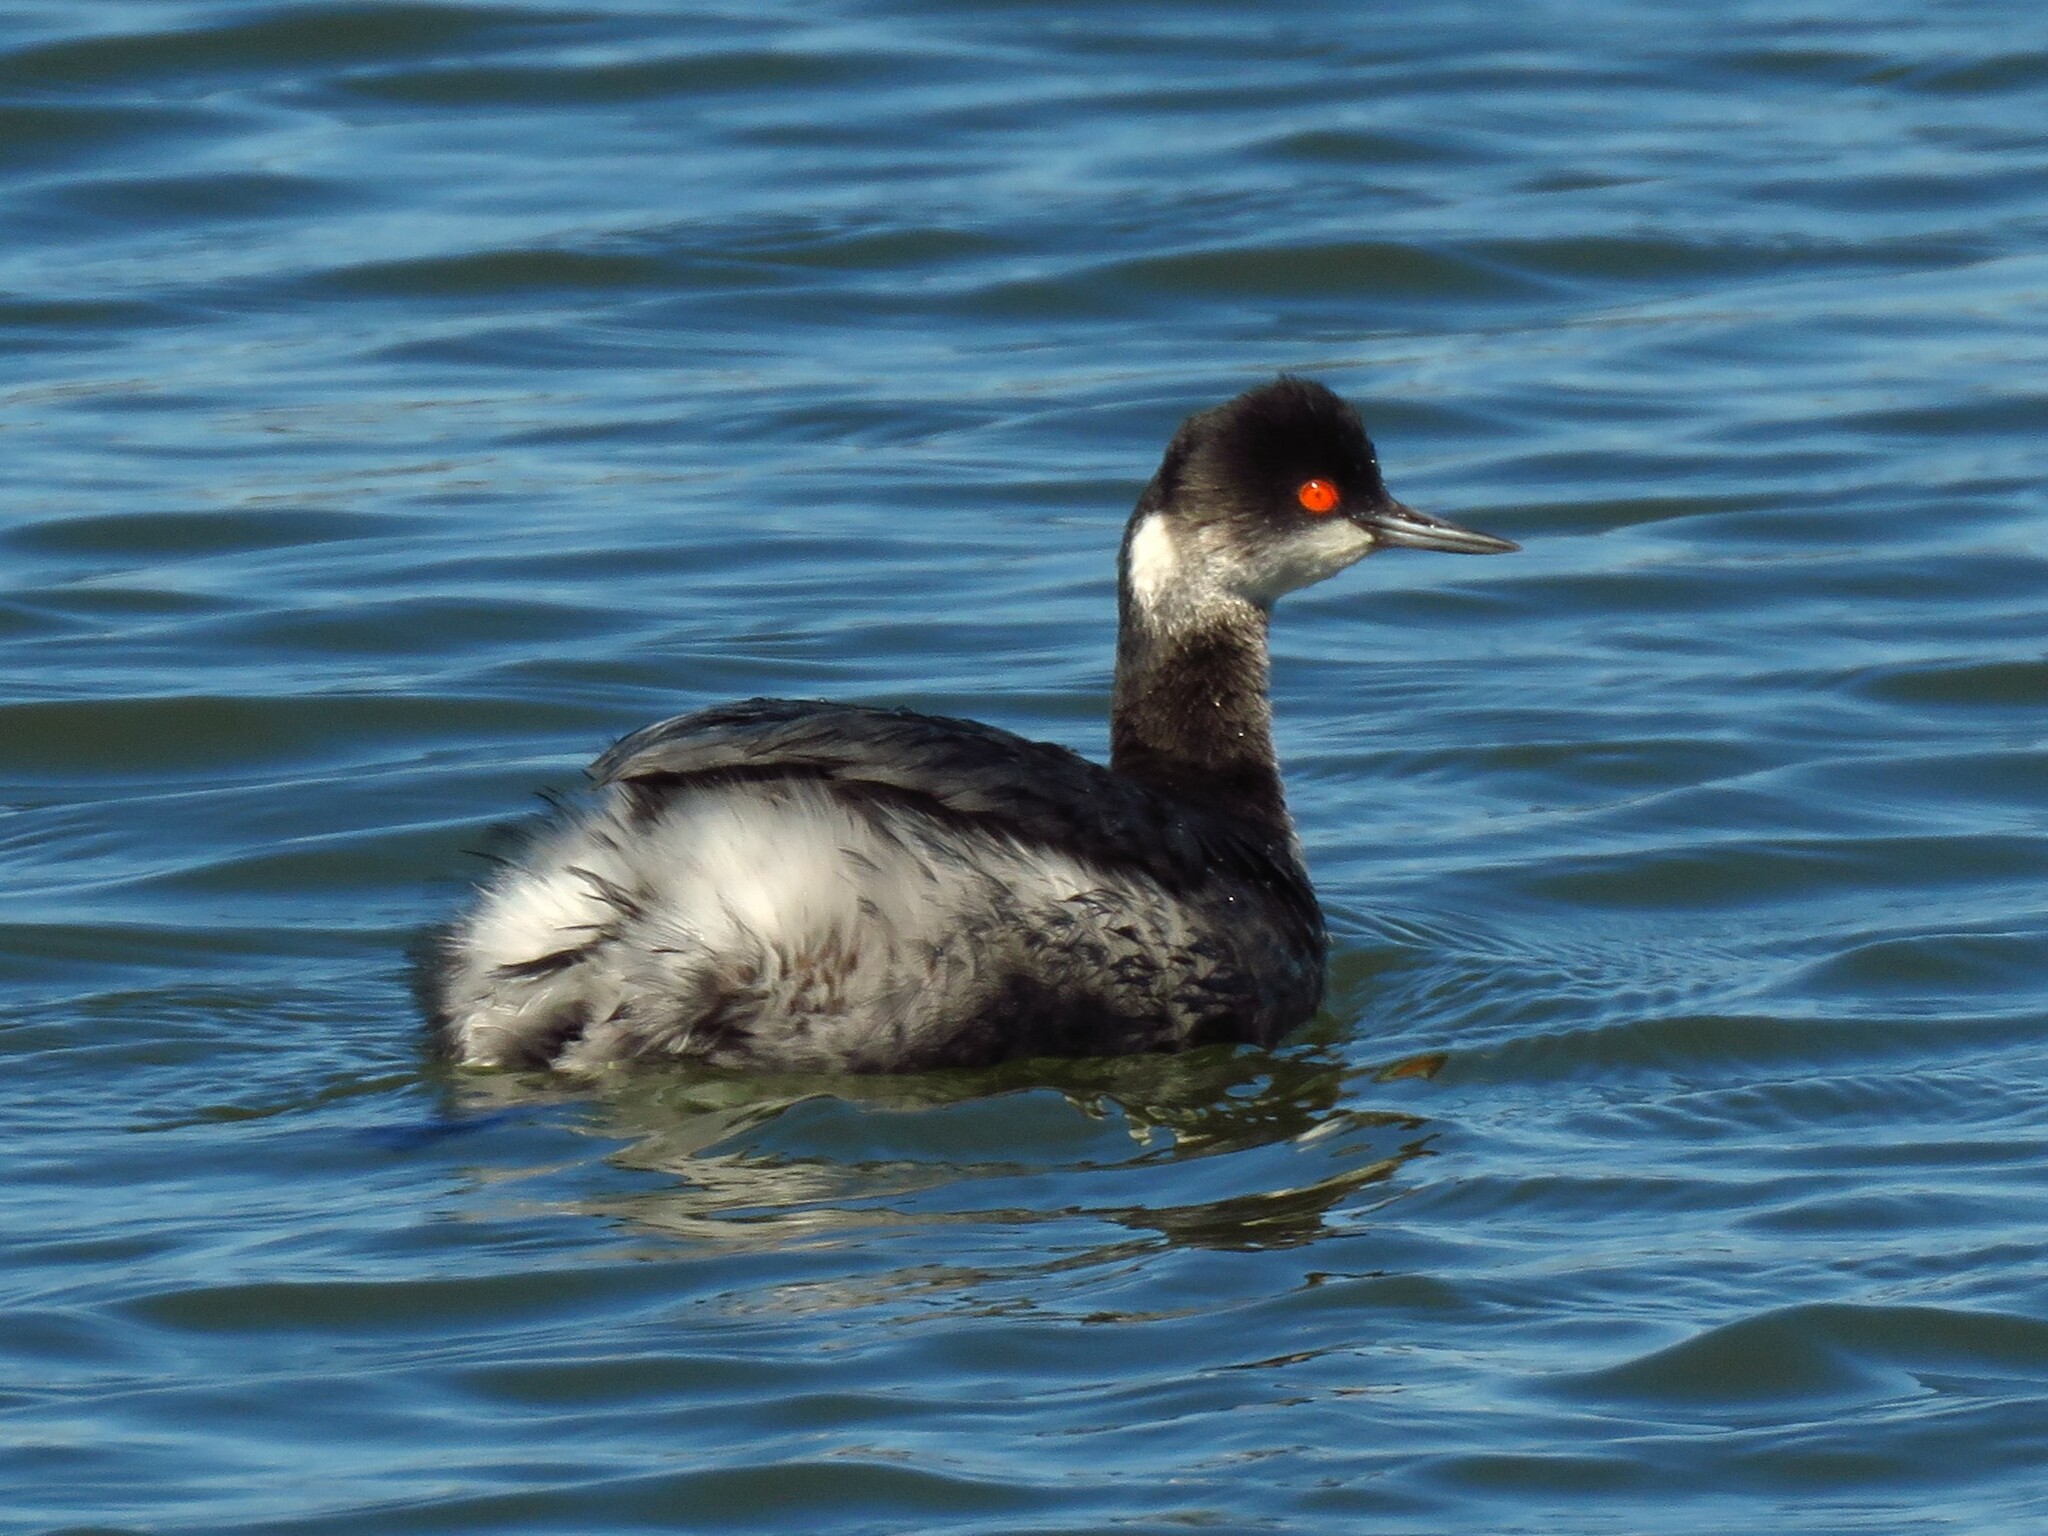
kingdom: Animalia
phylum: Chordata
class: Aves
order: Podicipediformes
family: Podicipedidae
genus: Podiceps
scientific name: Podiceps nigricollis
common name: Black-necked grebe
